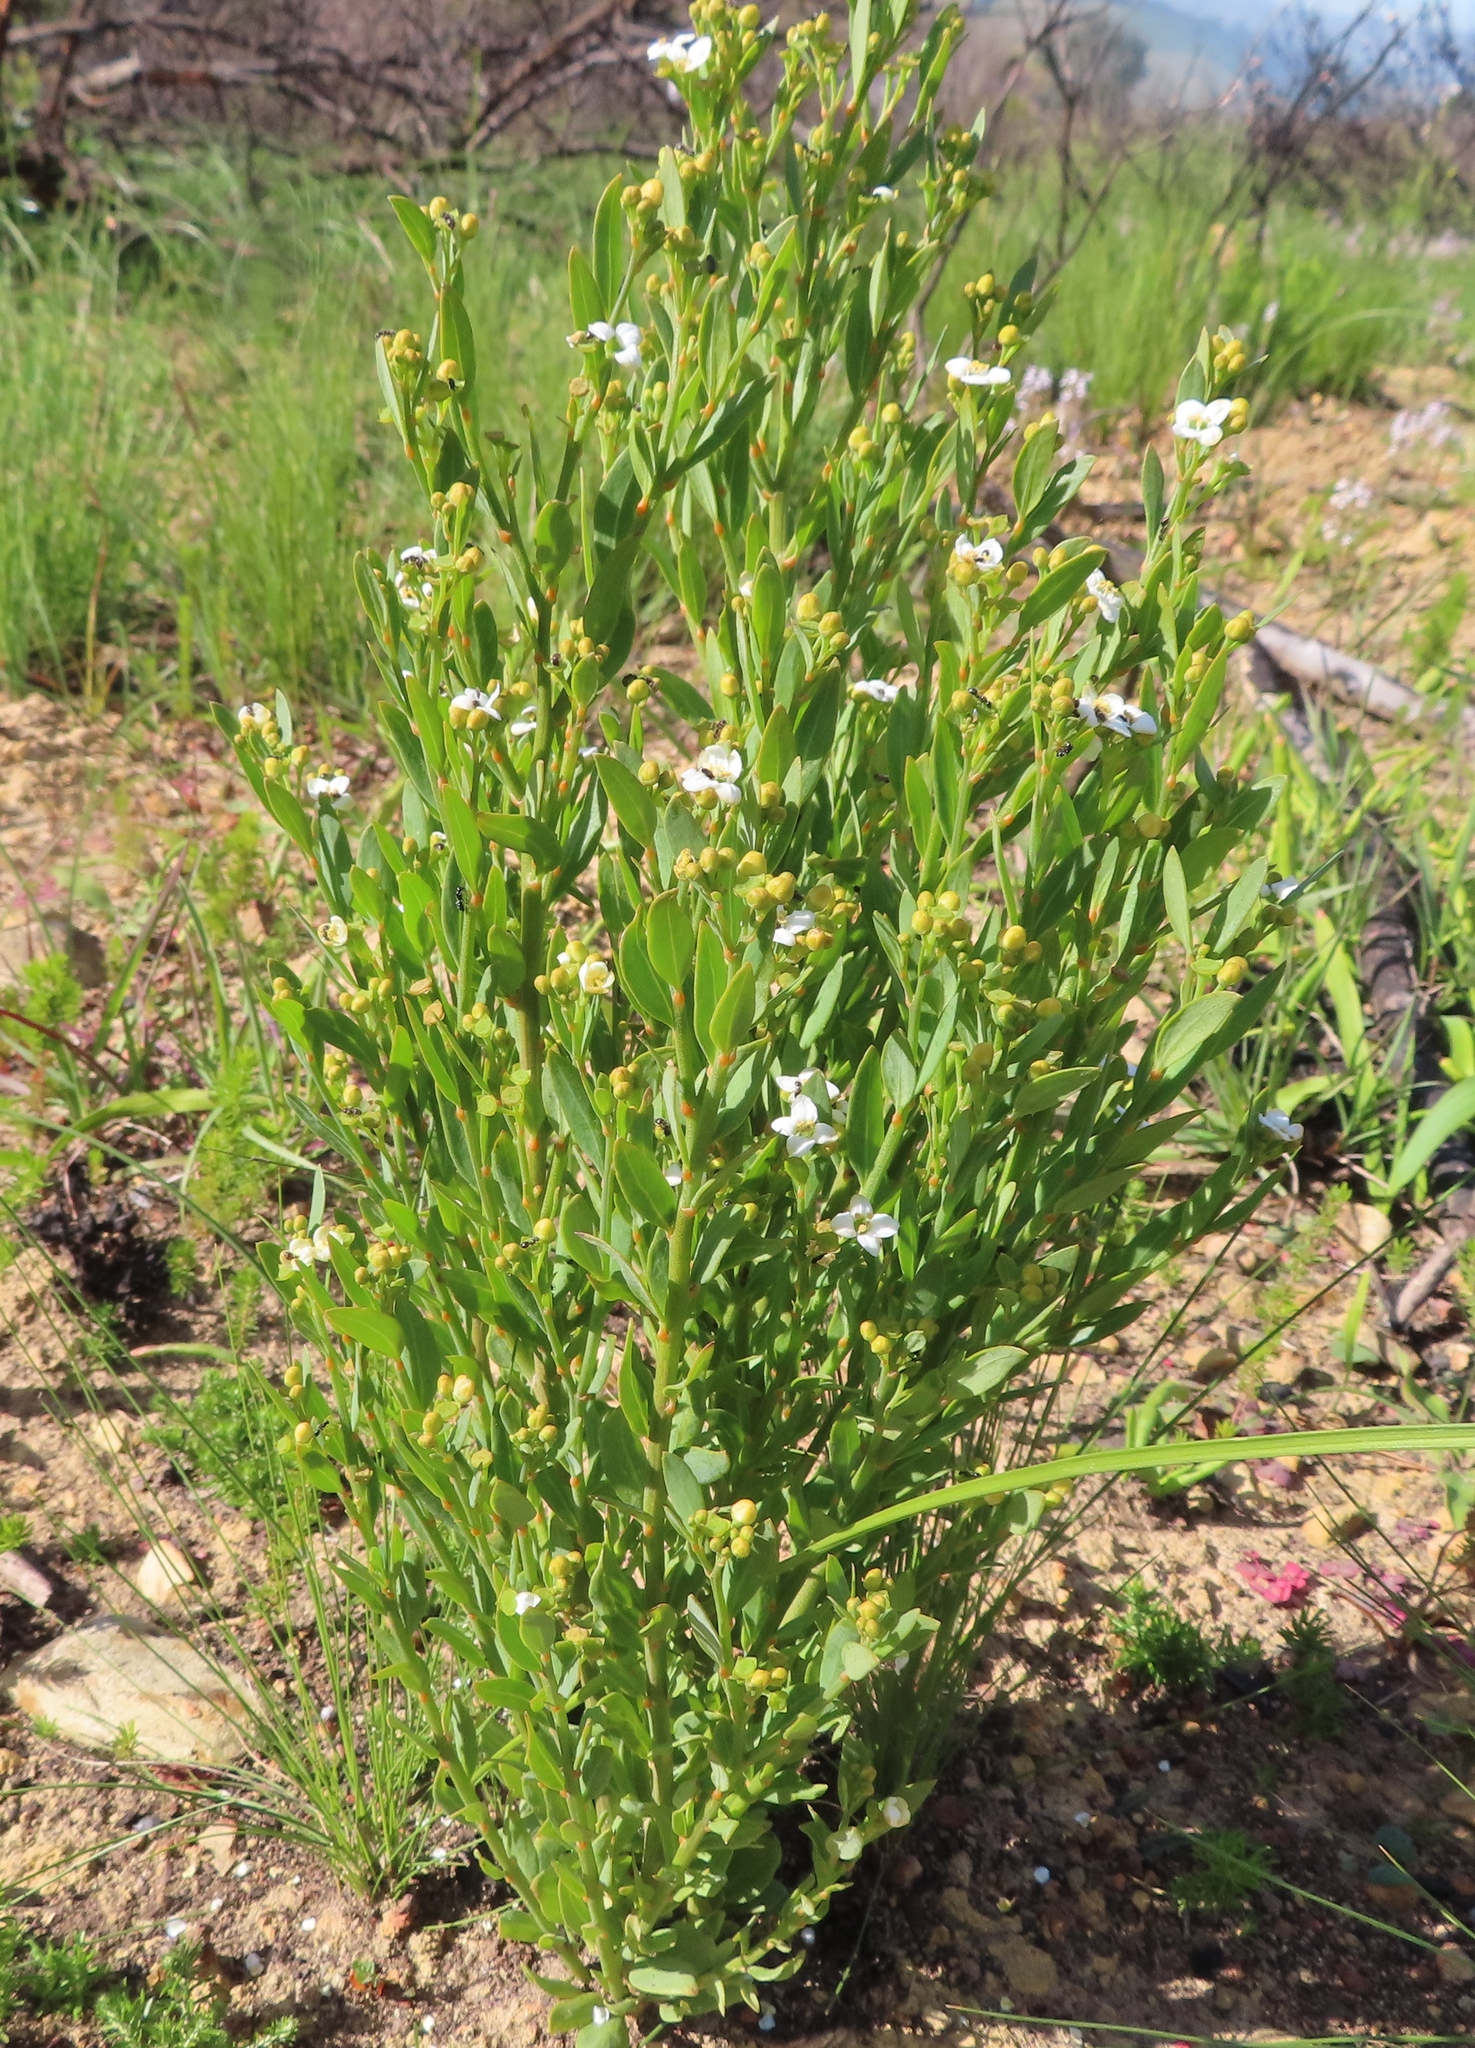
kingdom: Plantae
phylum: Tracheophyta
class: Magnoliopsida
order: Solanales
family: Montiniaceae
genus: Montinia
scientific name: Montinia caryophyllacea
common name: Wild clove-bush
